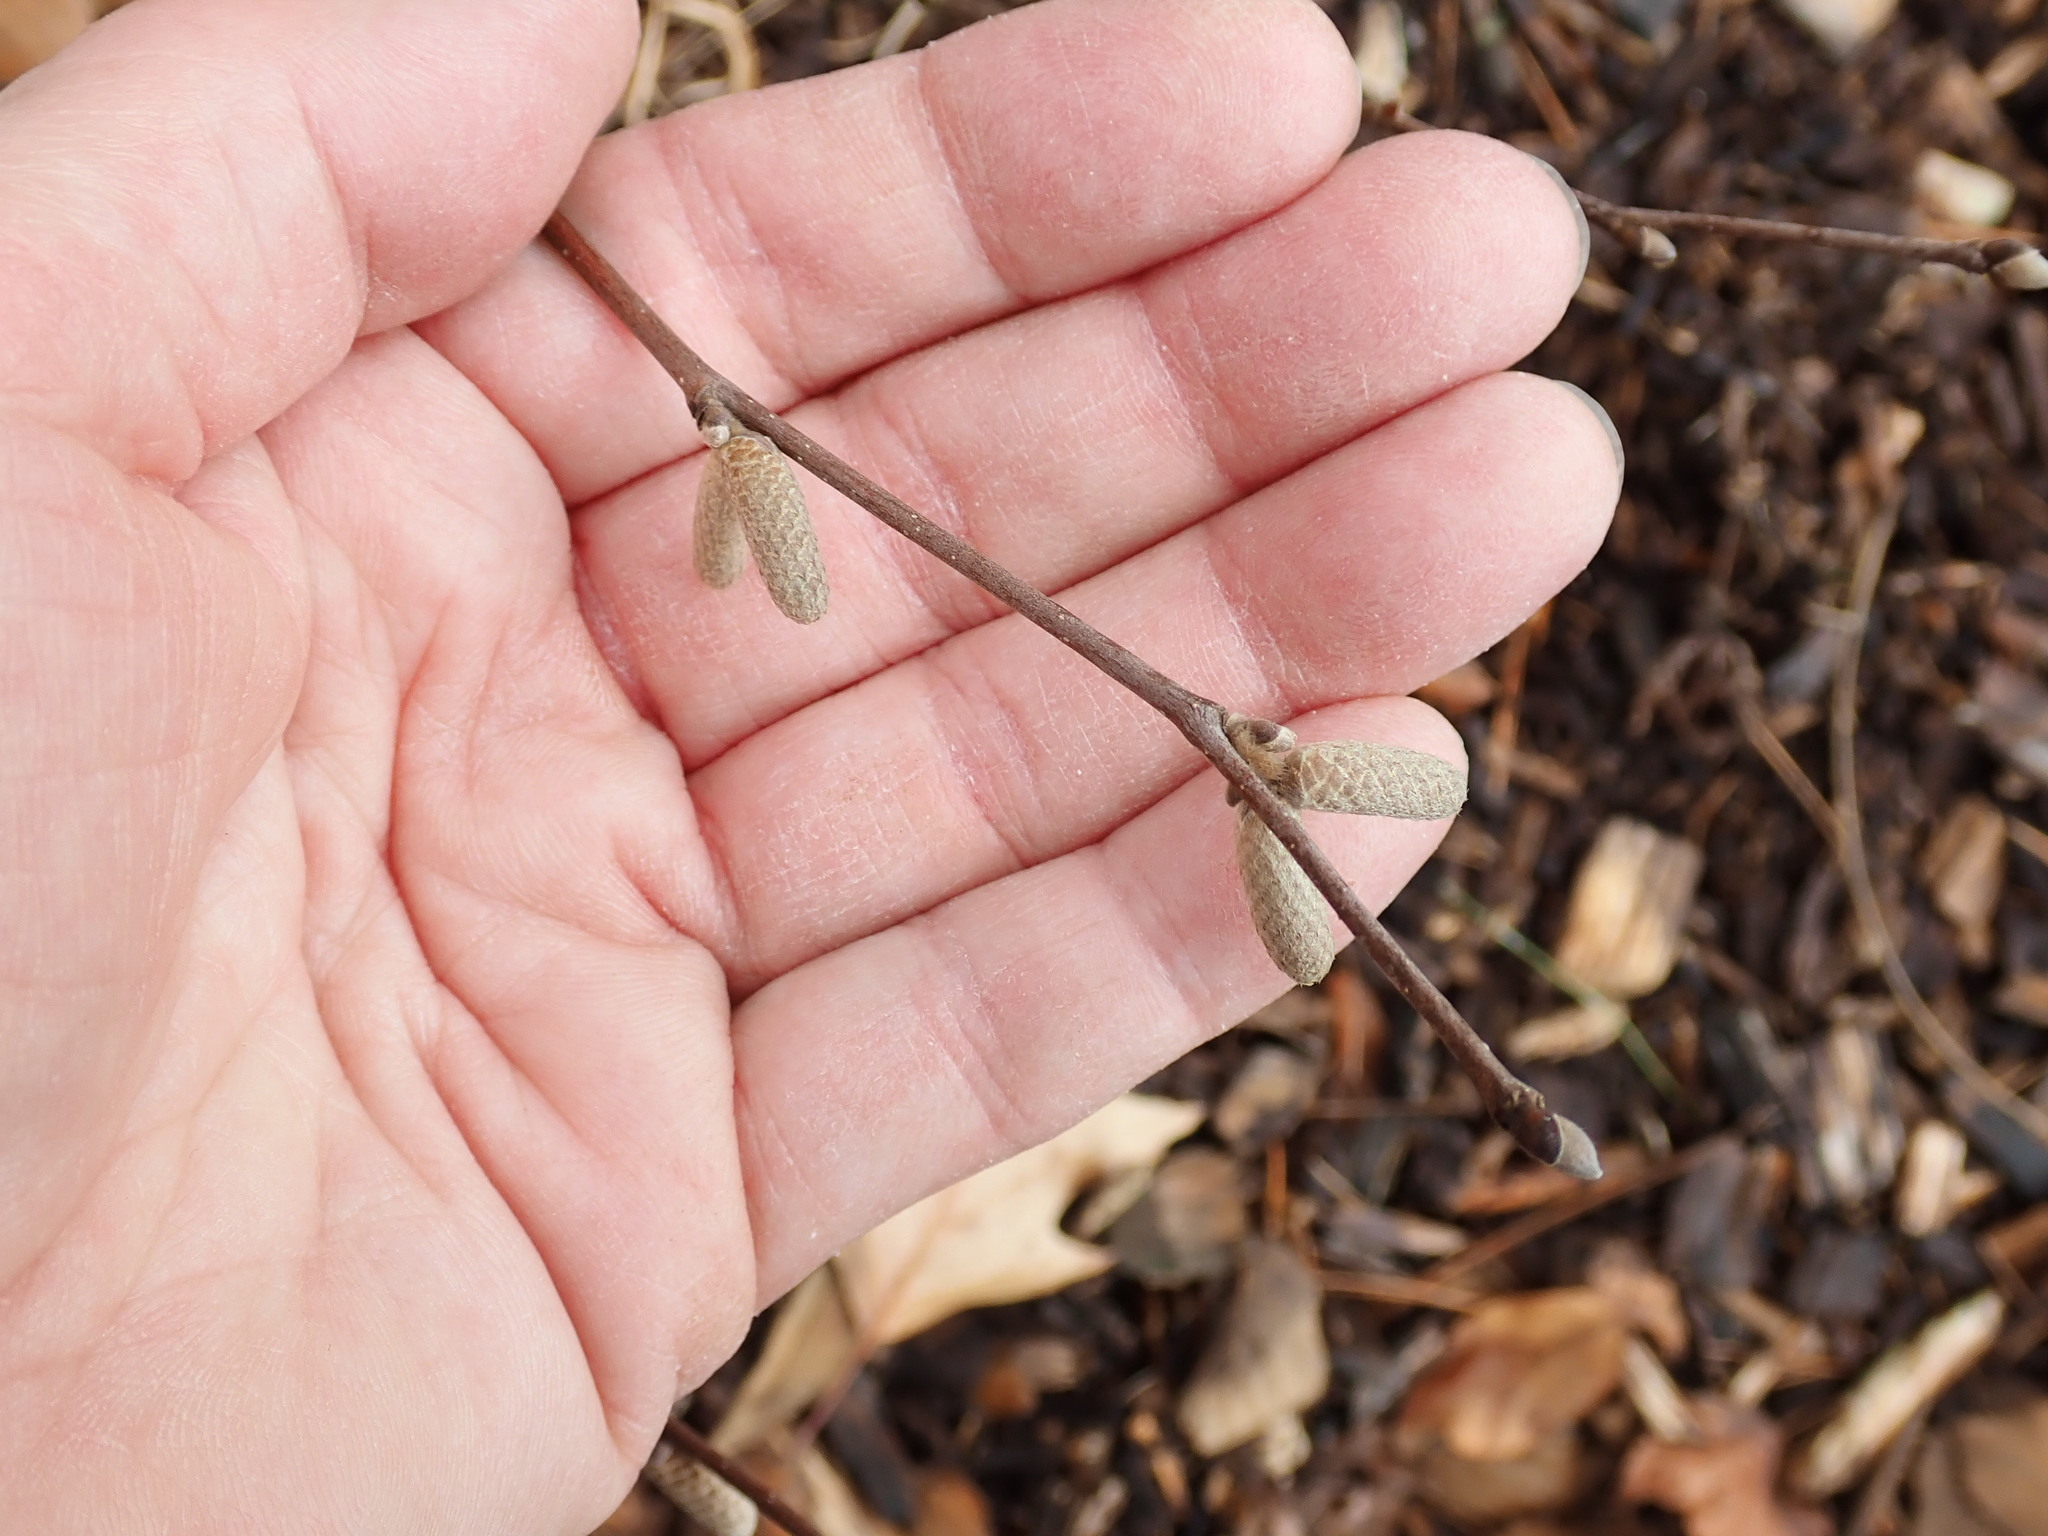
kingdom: Plantae
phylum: Tracheophyta
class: Magnoliopsida
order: Fagales
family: Betulaceae
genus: Corylus
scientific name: Corylus cornuta
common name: Beaked hazel
